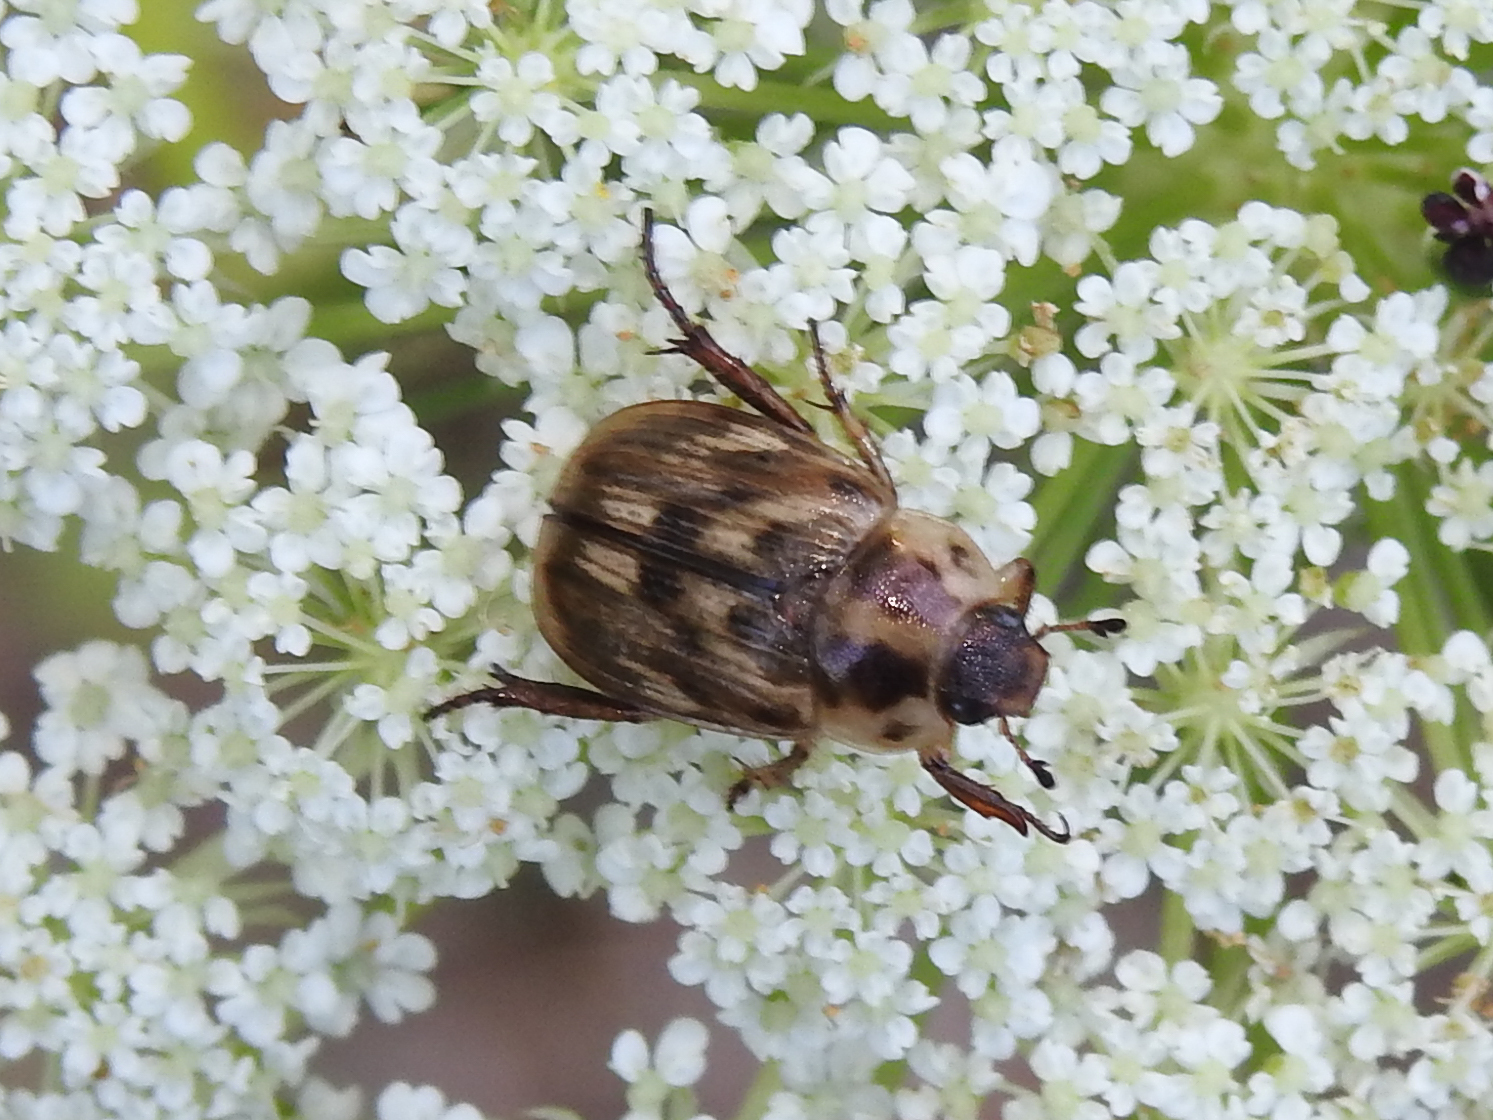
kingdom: Animalia
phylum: Arthropoda
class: Insecta
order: Coleoptera
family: Scarabaeidae
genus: Exomala
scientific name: Exomala orientalis
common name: Oriental beetle
